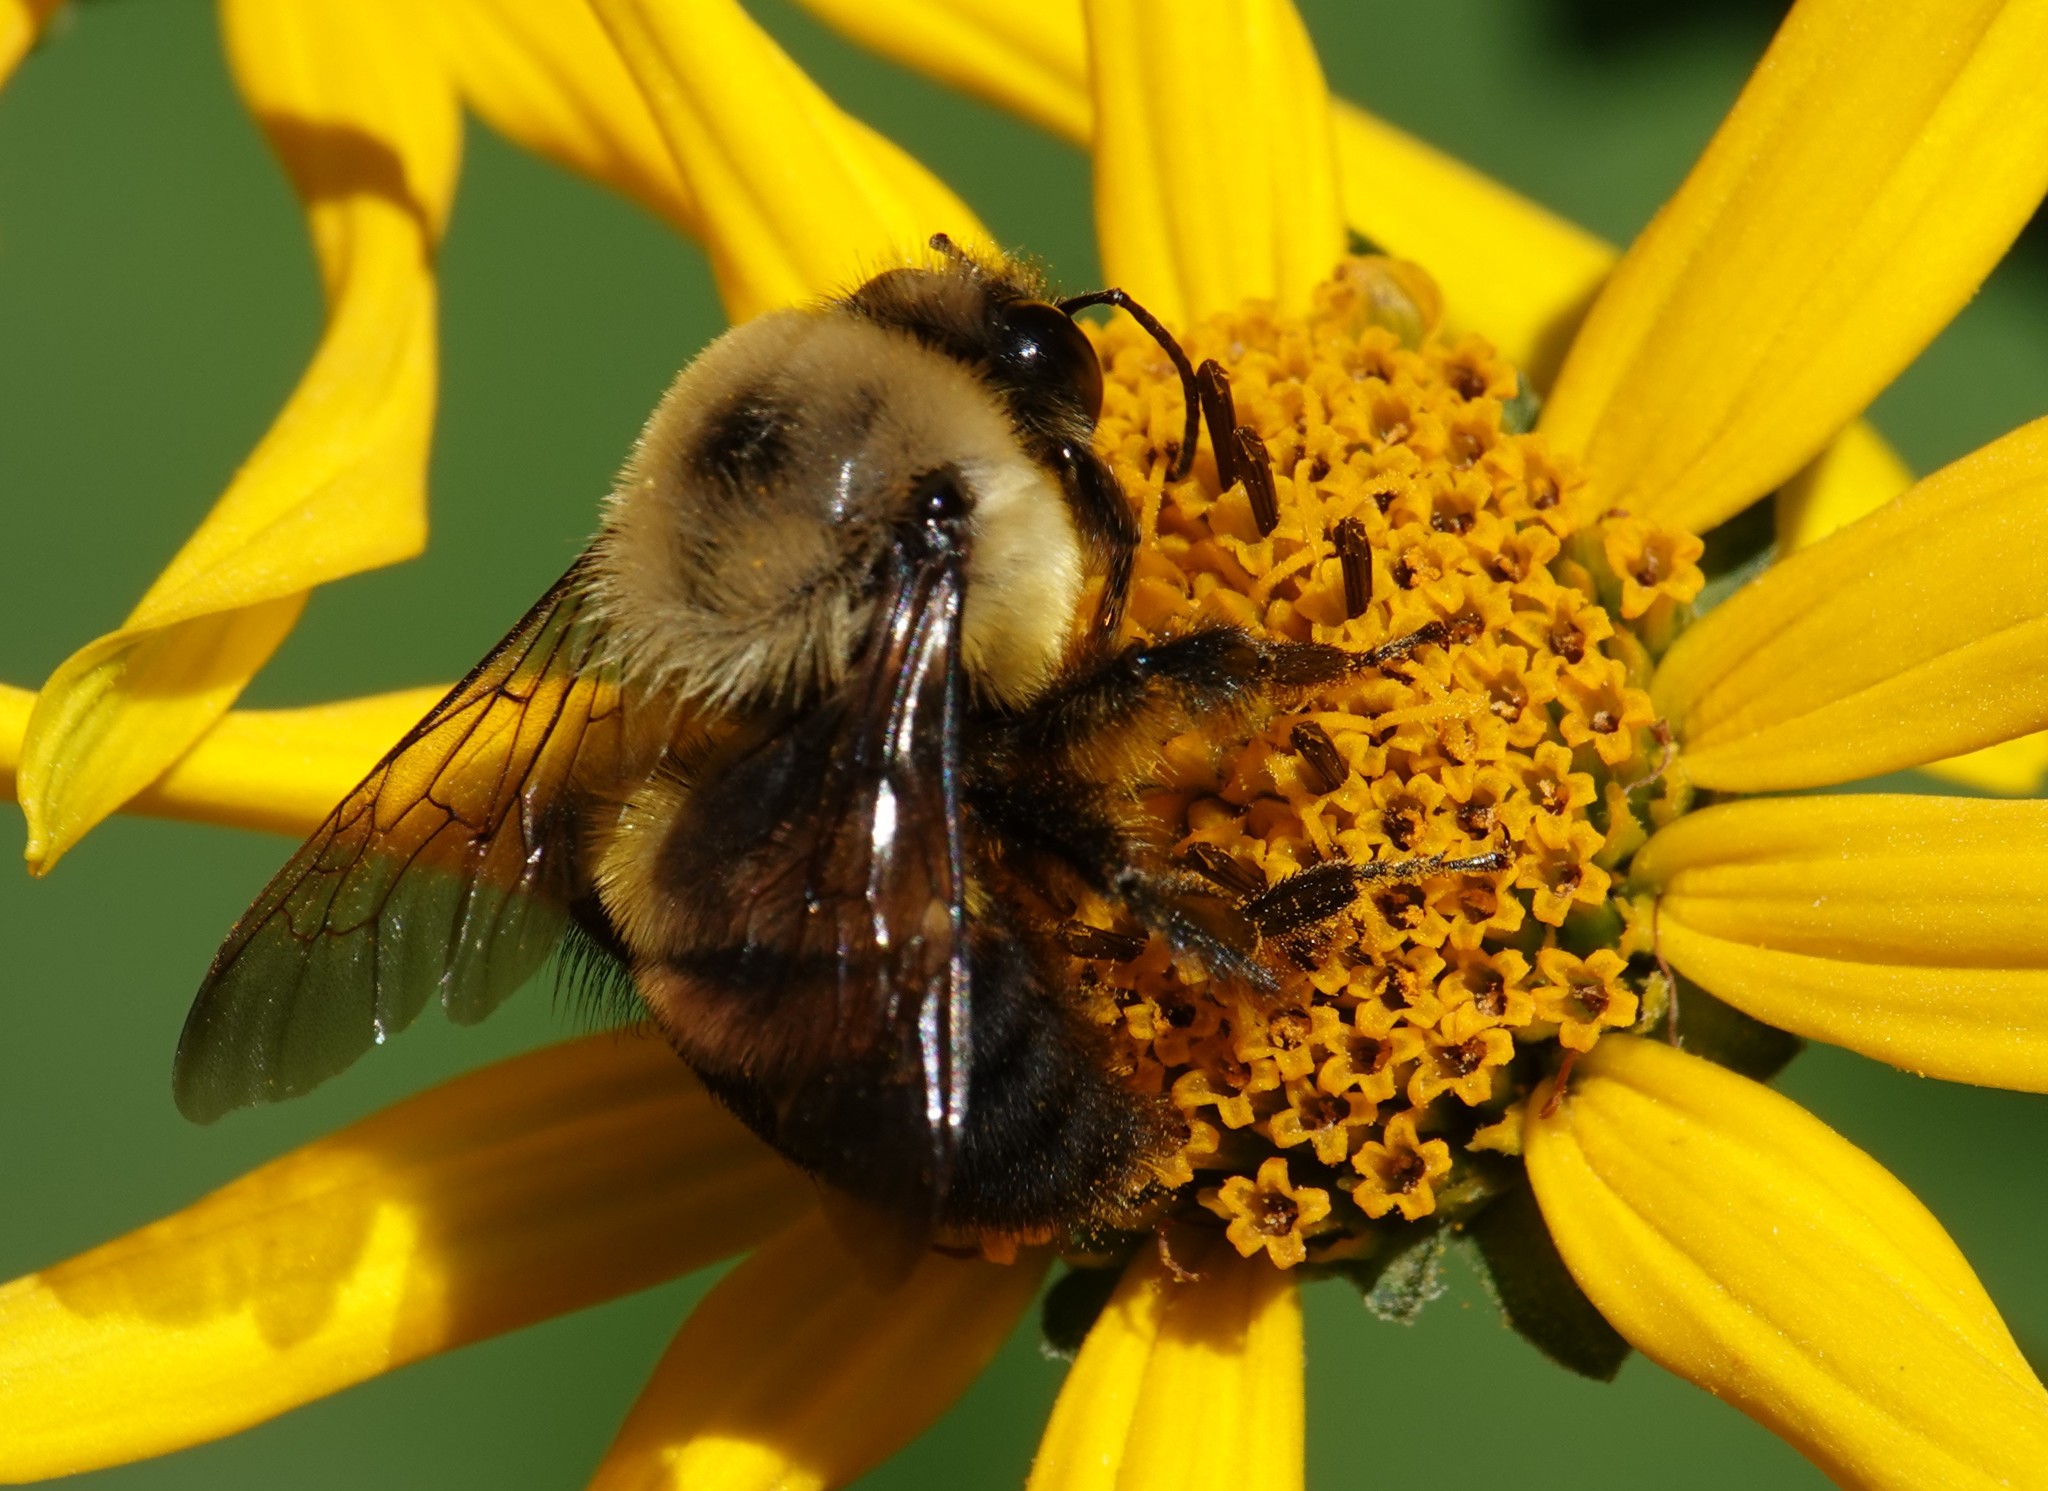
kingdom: Animalia
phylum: Arthropoda
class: Insecta
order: Hymenoptera
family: Apidae
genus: Bombus
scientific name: Bombus griseocollis
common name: Brown-belted bumble bee
